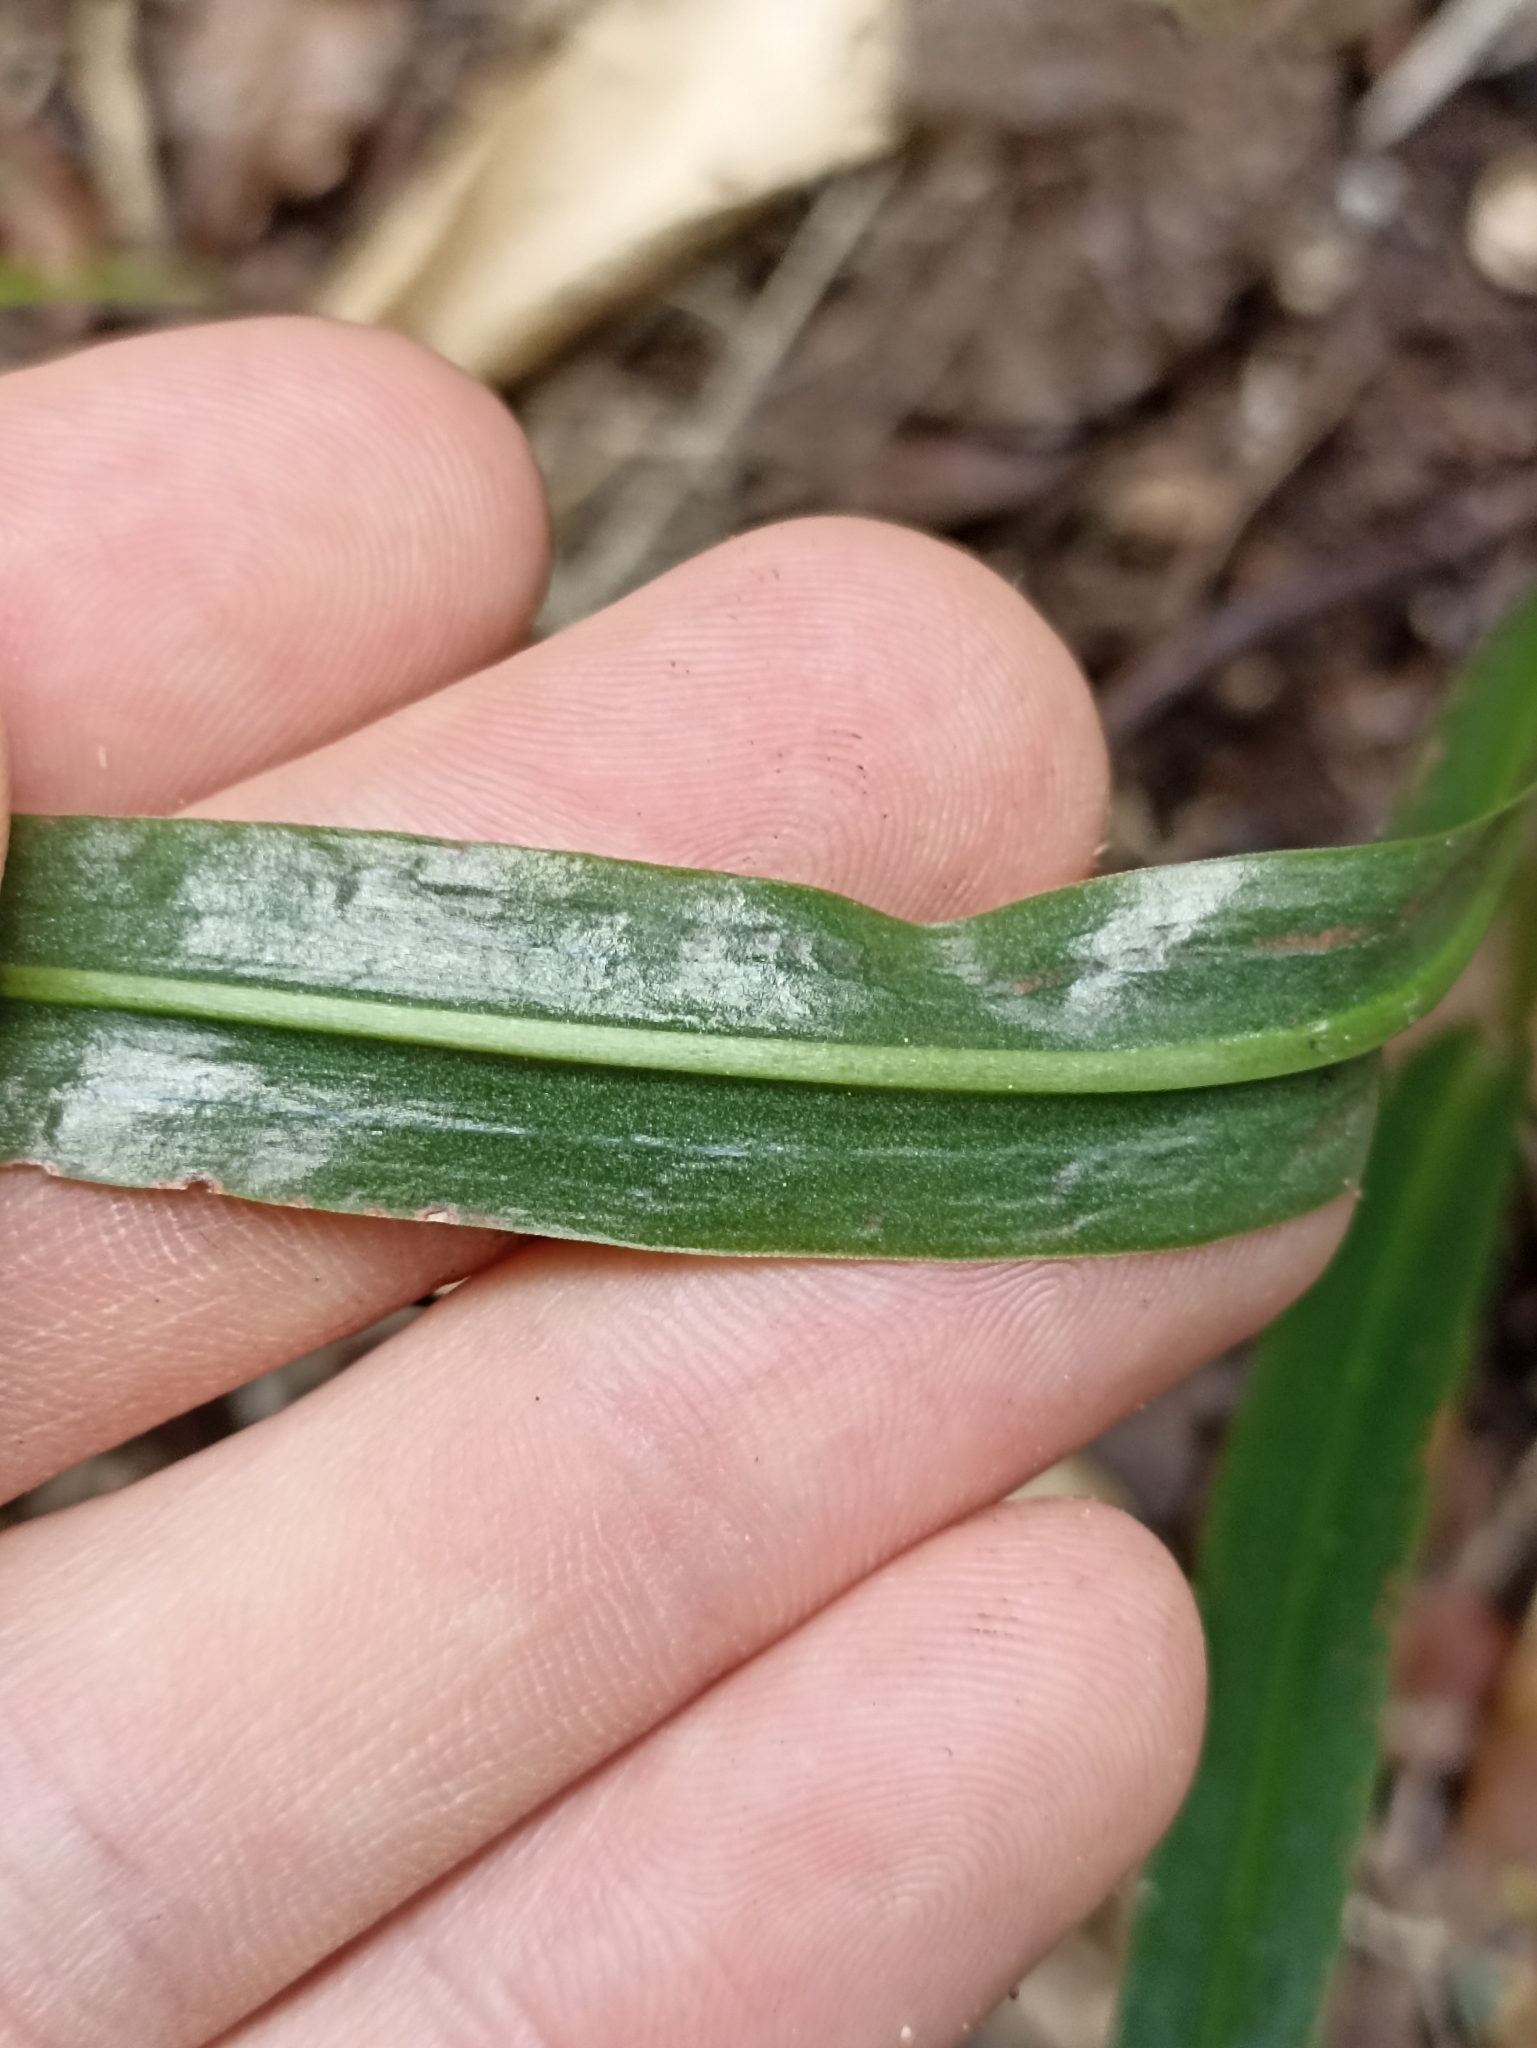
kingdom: Plantae
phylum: Tracheophyta
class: Liliopsida
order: Asparagales
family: Orchidaceae
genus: Pterostylis
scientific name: Pterostylis banksii
